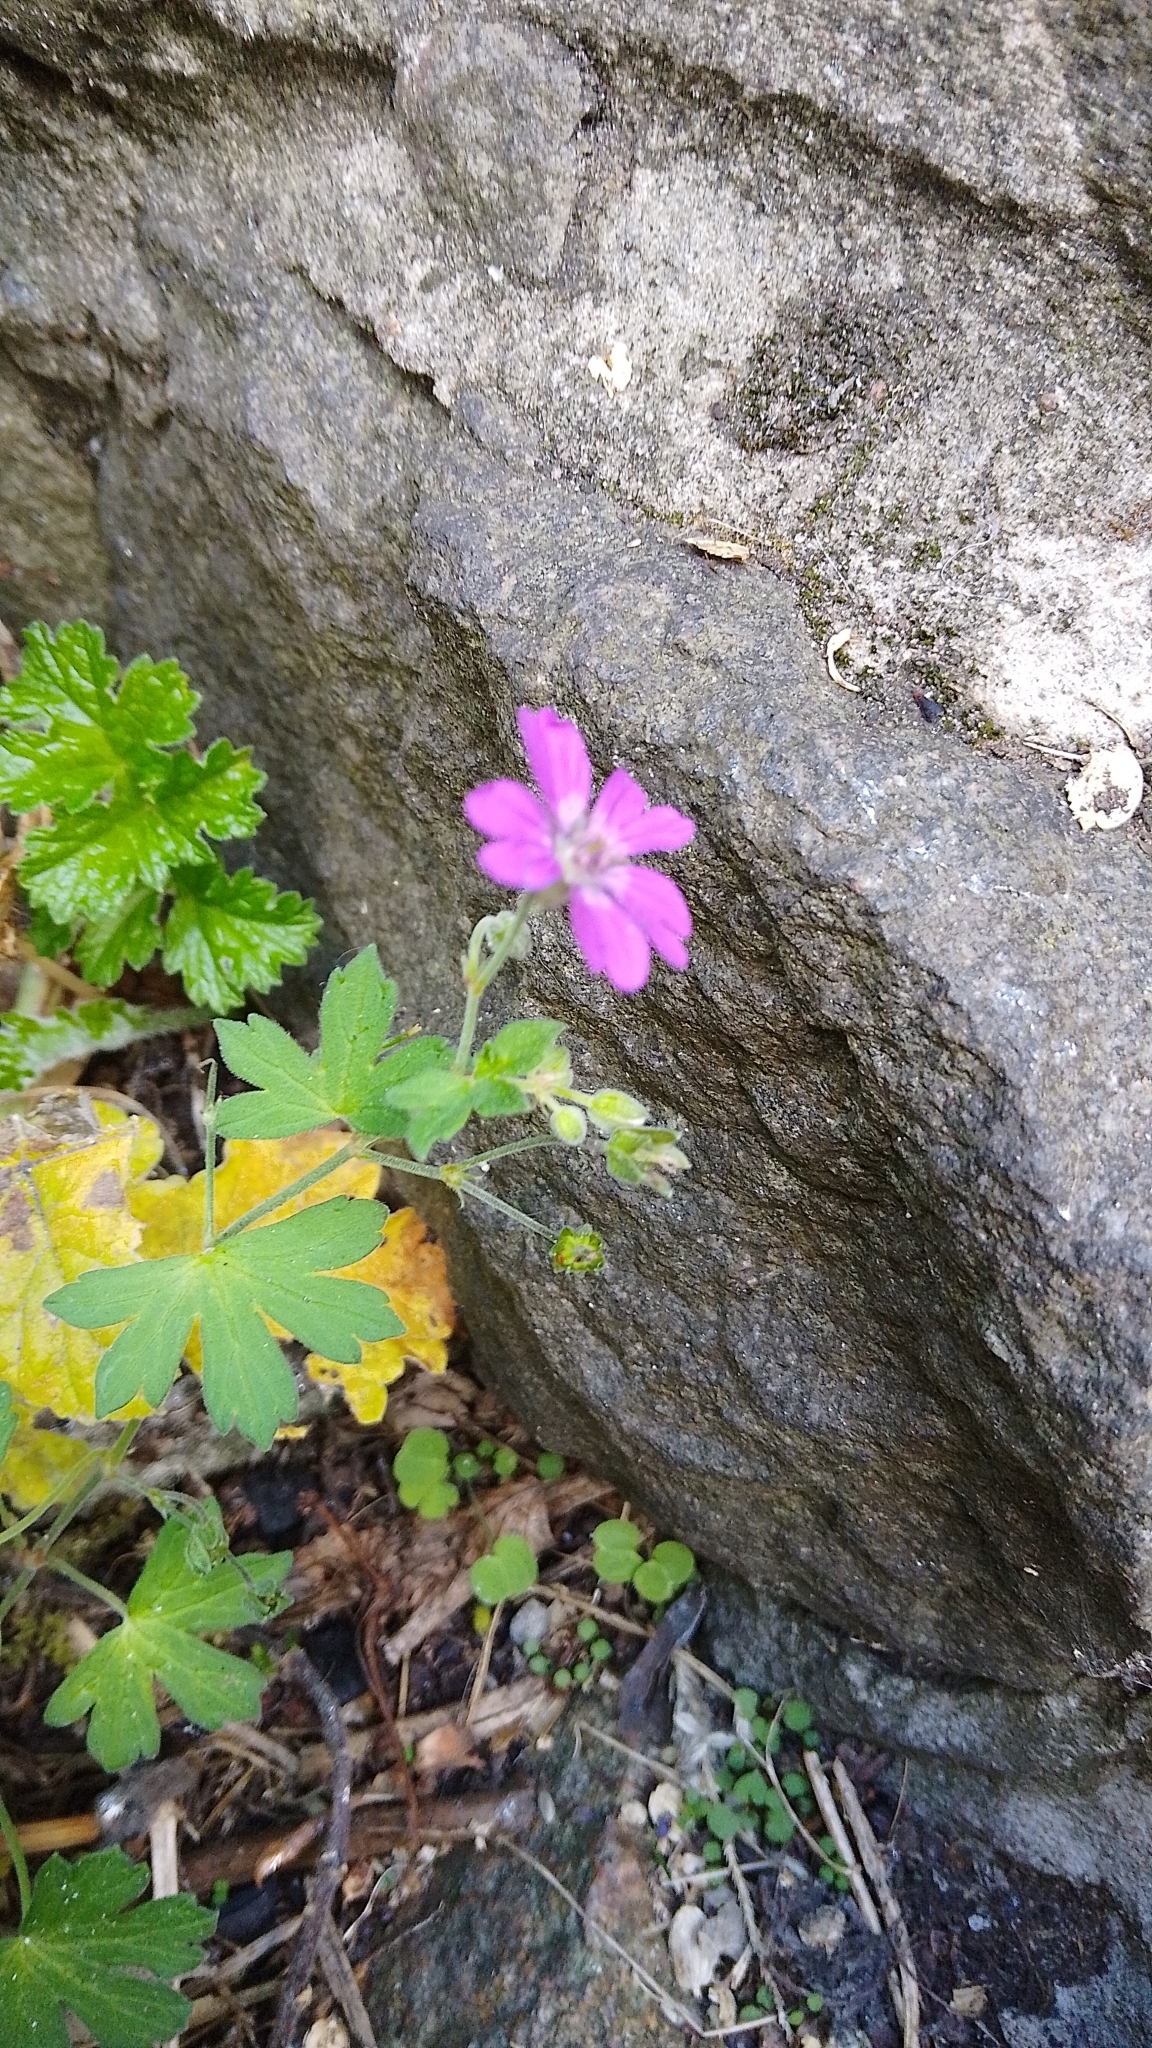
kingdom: Plantae
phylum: Tracheophyta
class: Magnoliopsida
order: Geraniales
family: Geraniaceae
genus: Geranium
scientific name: Geranium pyrenaicum
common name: Hedgerow crane's-bill
